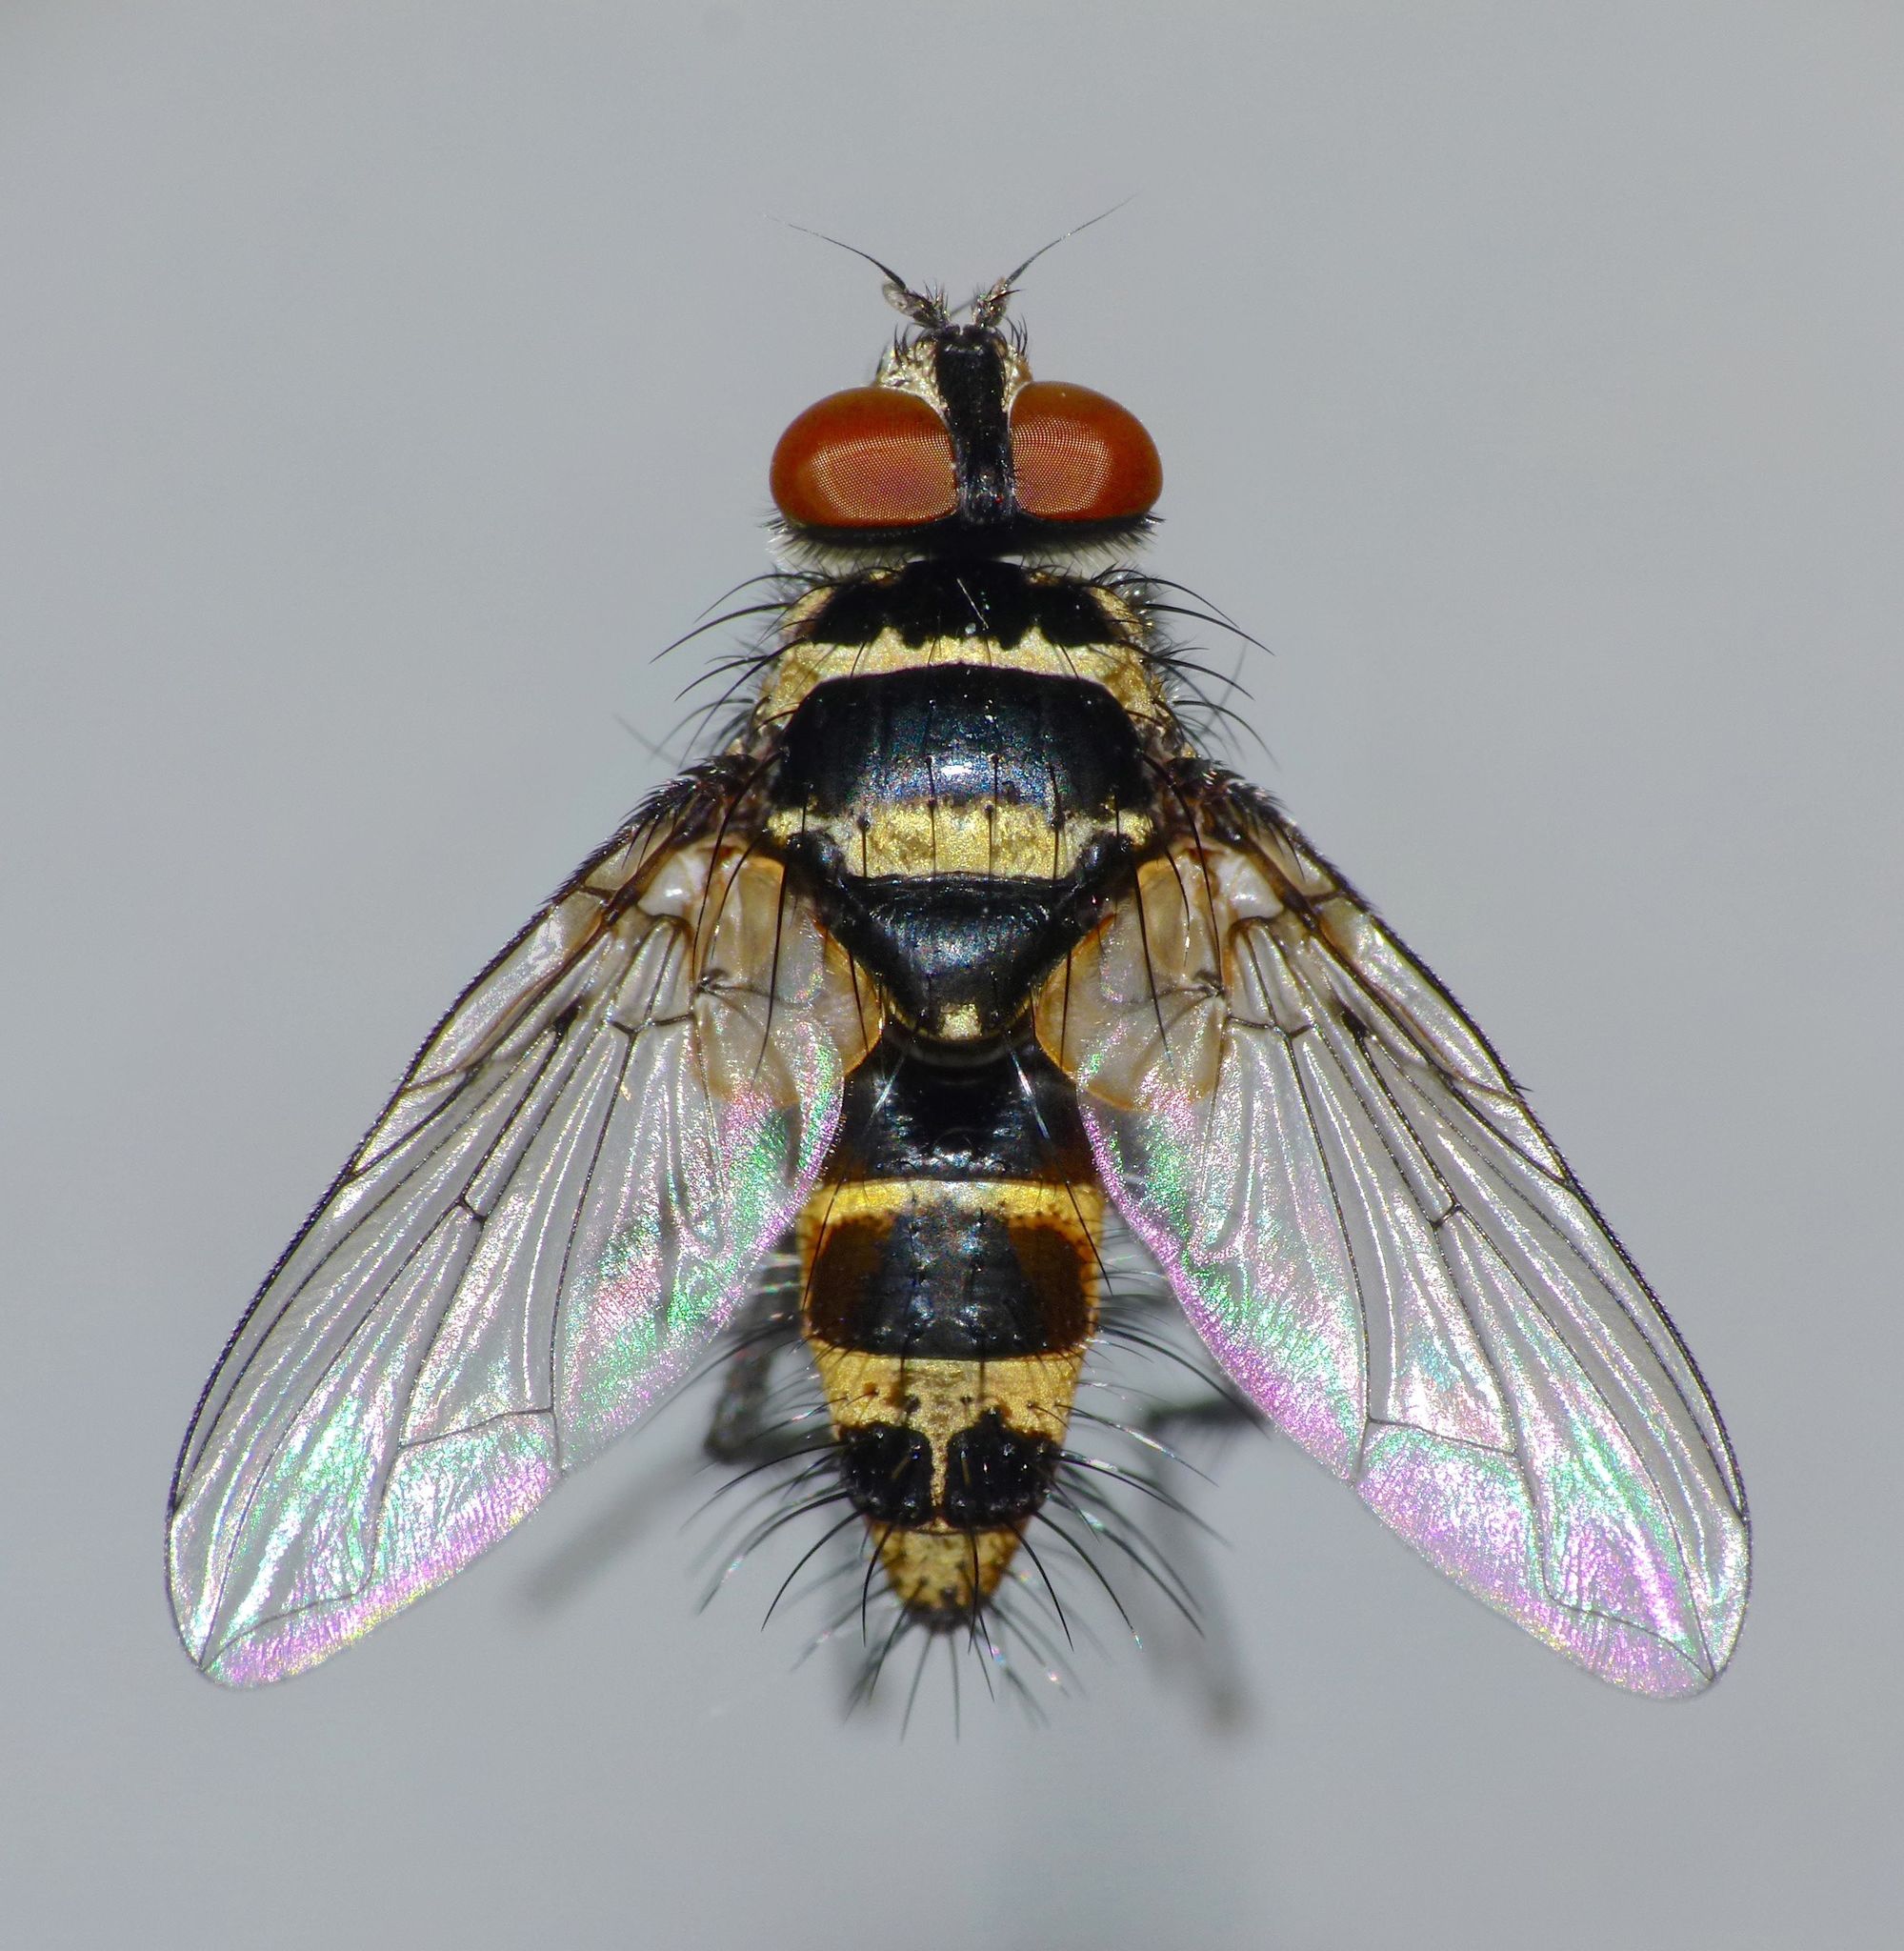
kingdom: Animalia
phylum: Arthropoda
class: Insecta
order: Diptera
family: Tachinidae
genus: Trigonospila
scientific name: Trigonospila brevifacies
